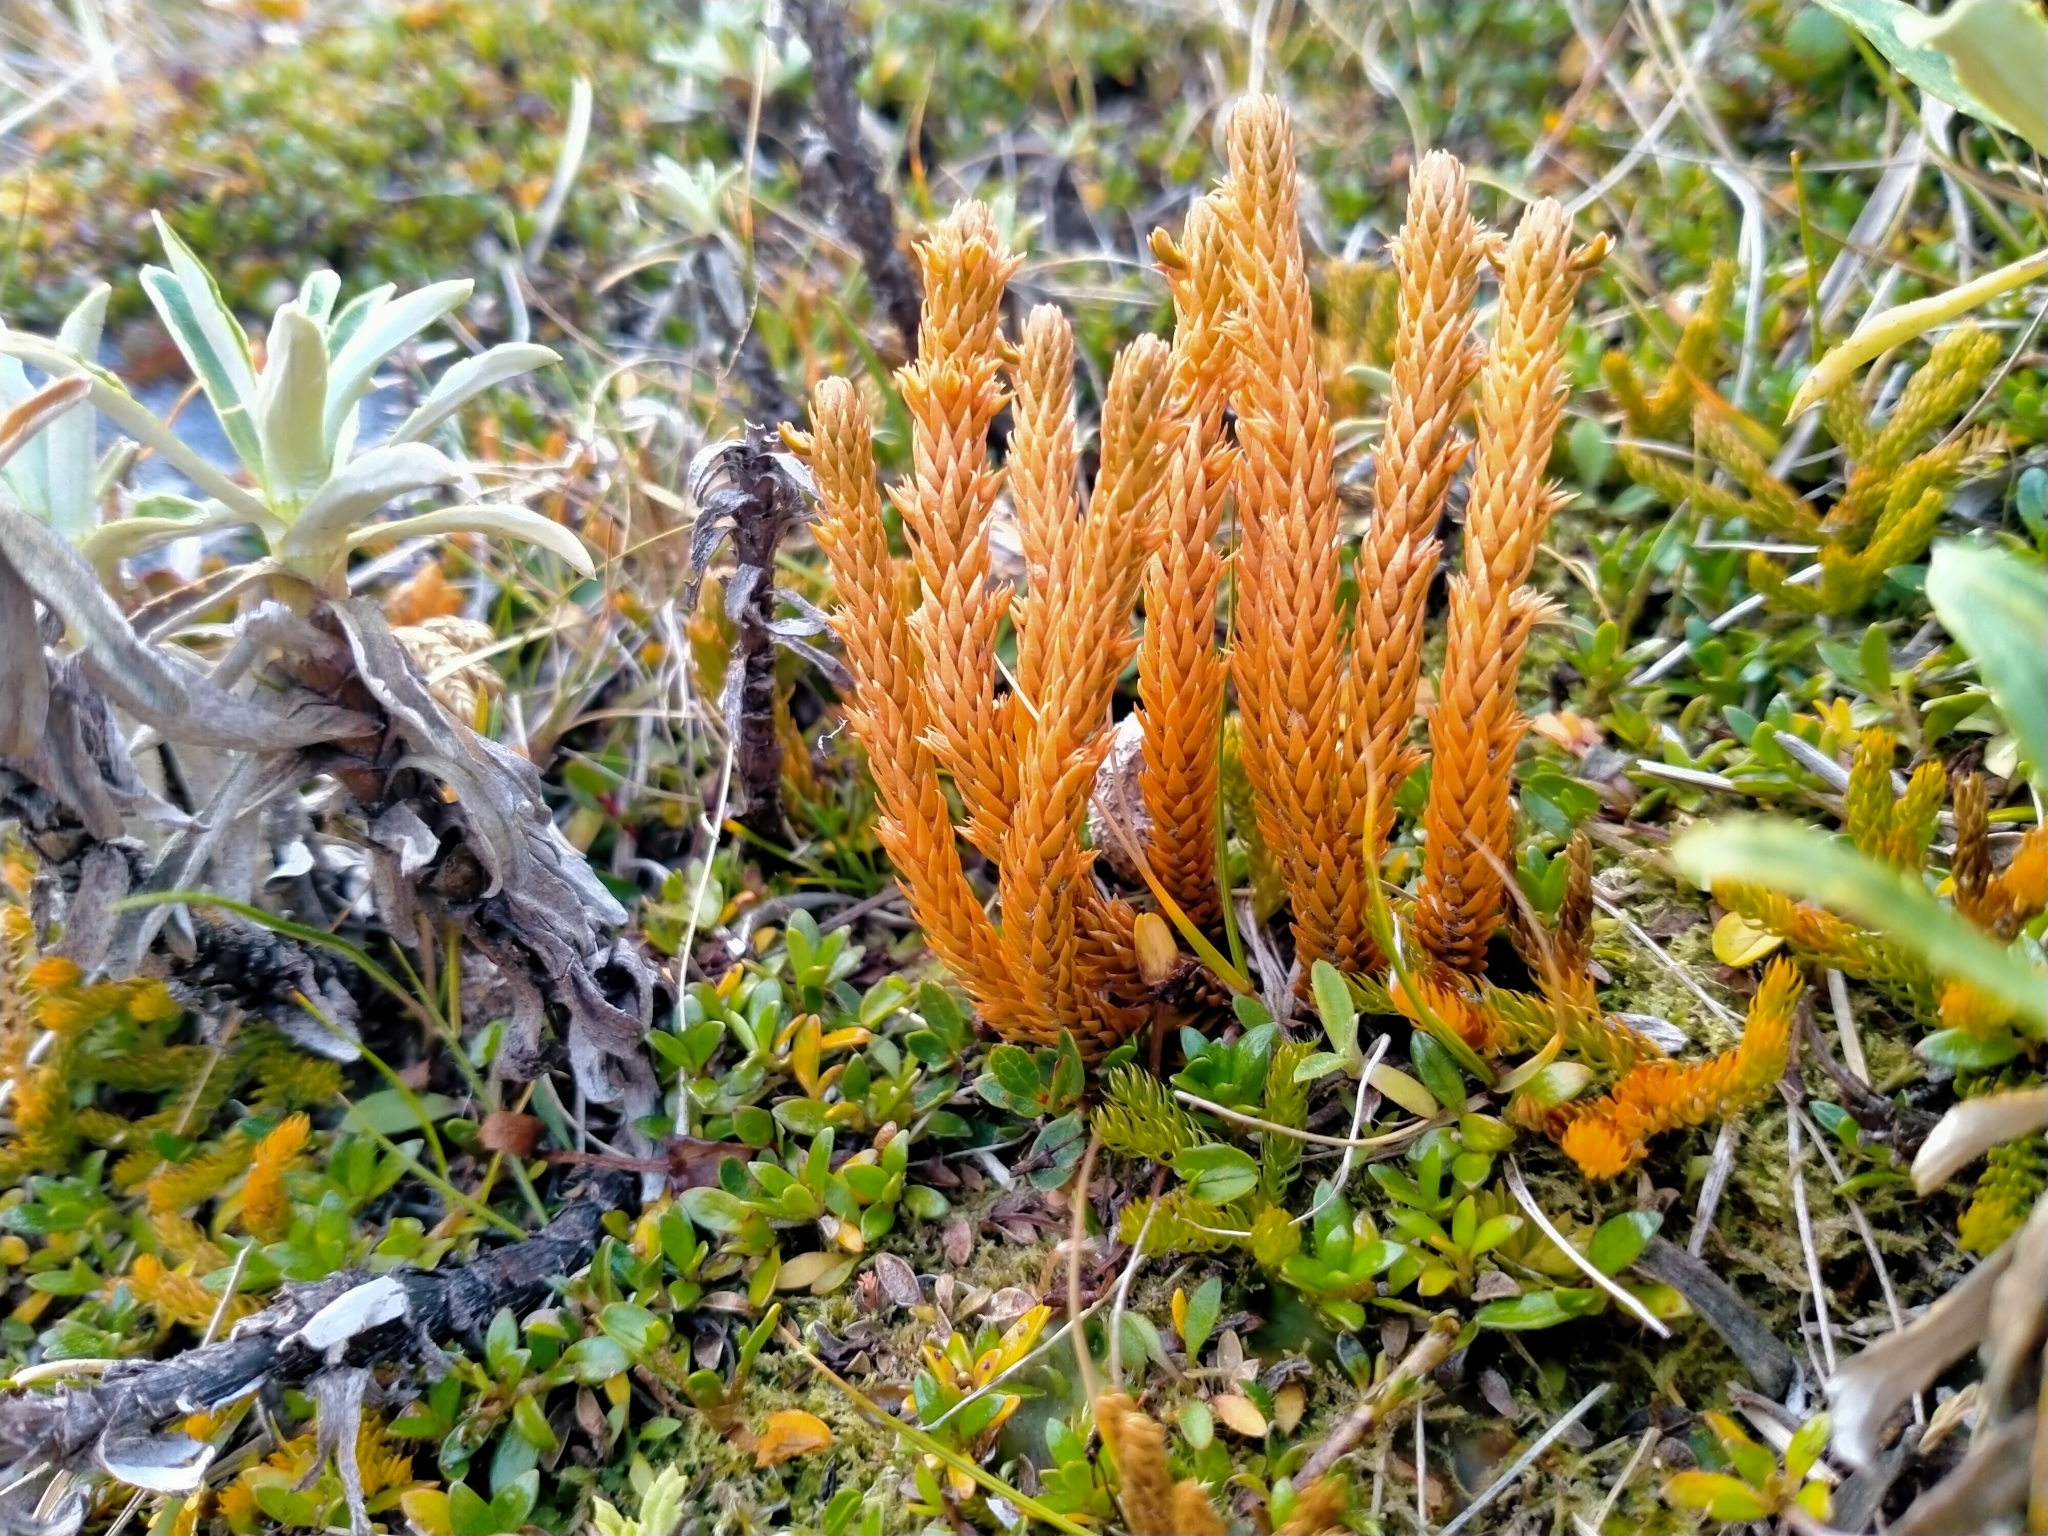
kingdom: Plantae
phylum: Tracheophyta
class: Lycopodiopsida
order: Lycopodiales
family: Lycopodiaceae
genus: Huperzia
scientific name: Huperzia australiana
